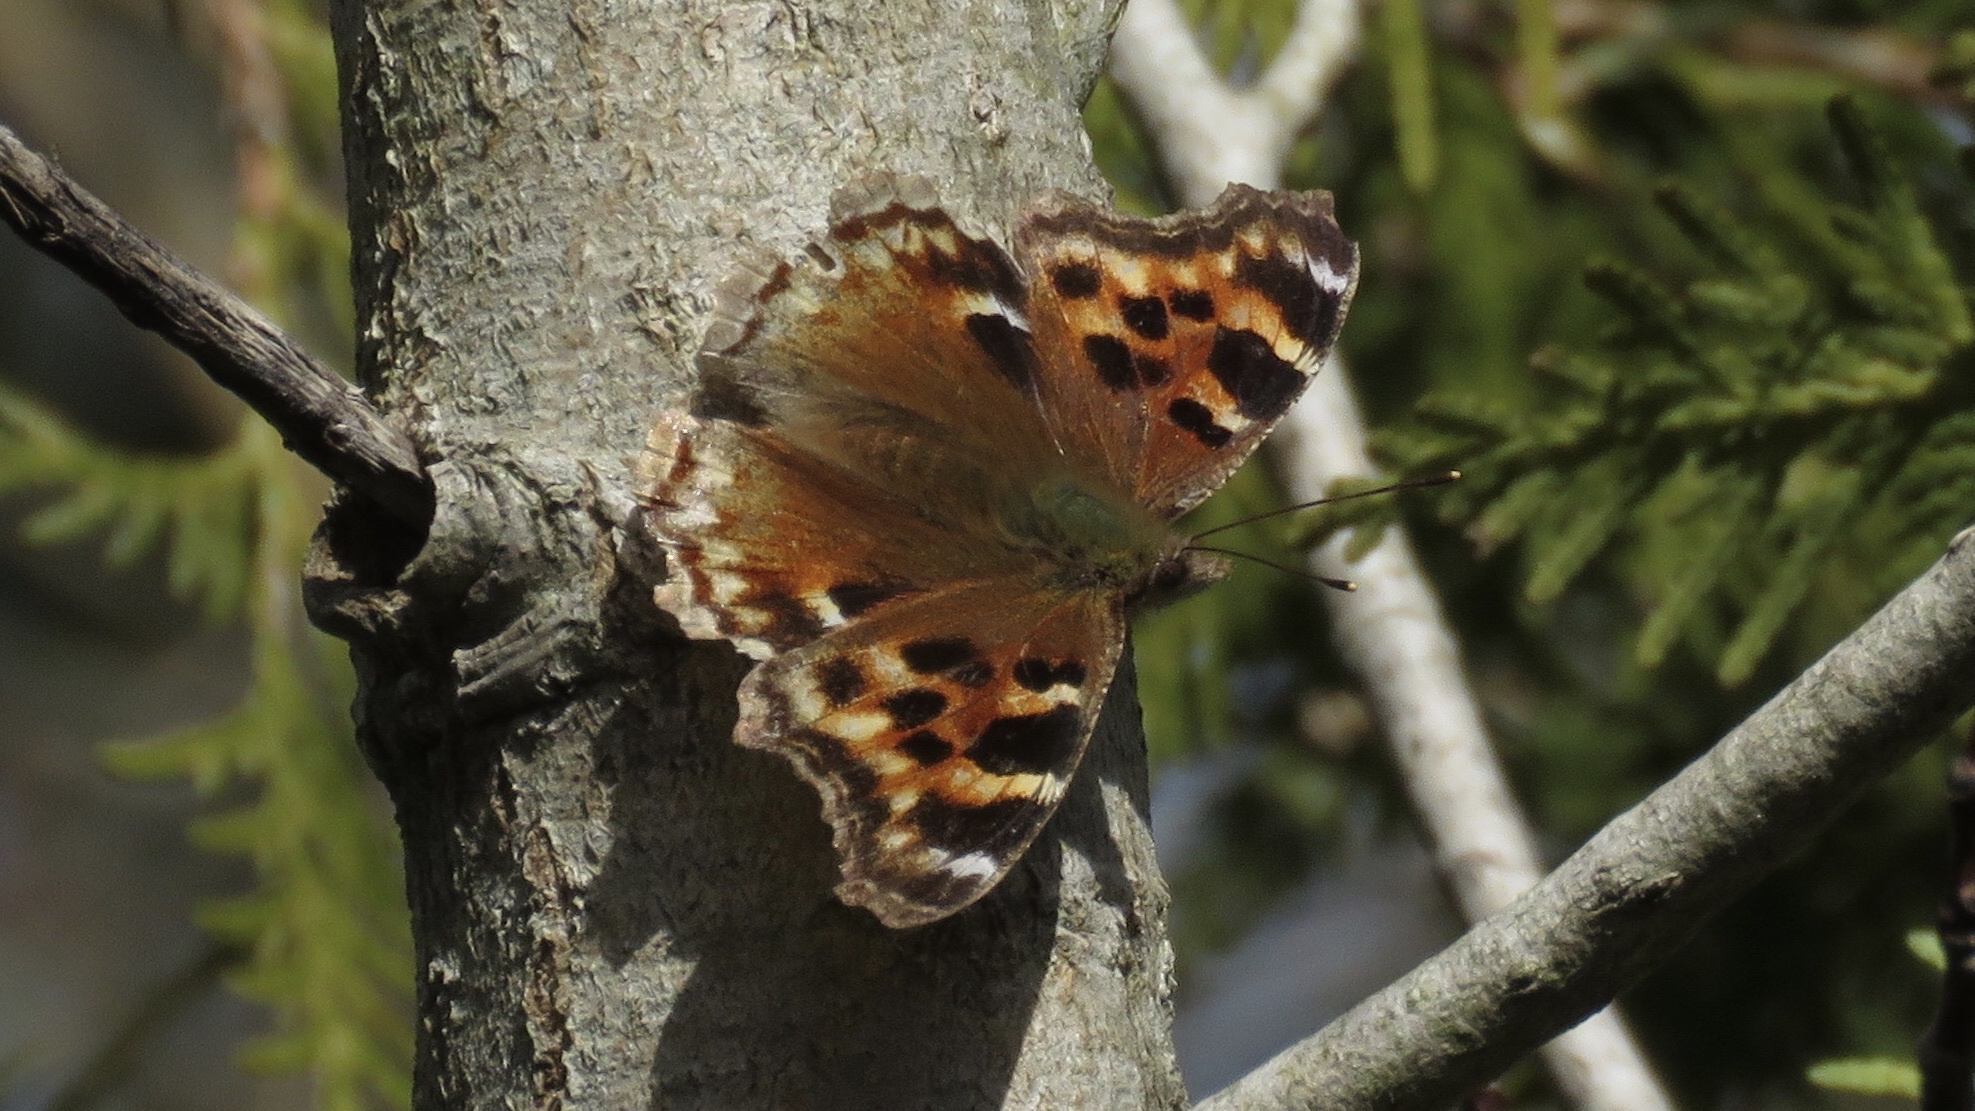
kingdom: Animalia
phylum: Arthropoda
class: Insecta
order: Lepidoptera
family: Nymphalidae
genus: Polygonia
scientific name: Polygonia vaualbum
